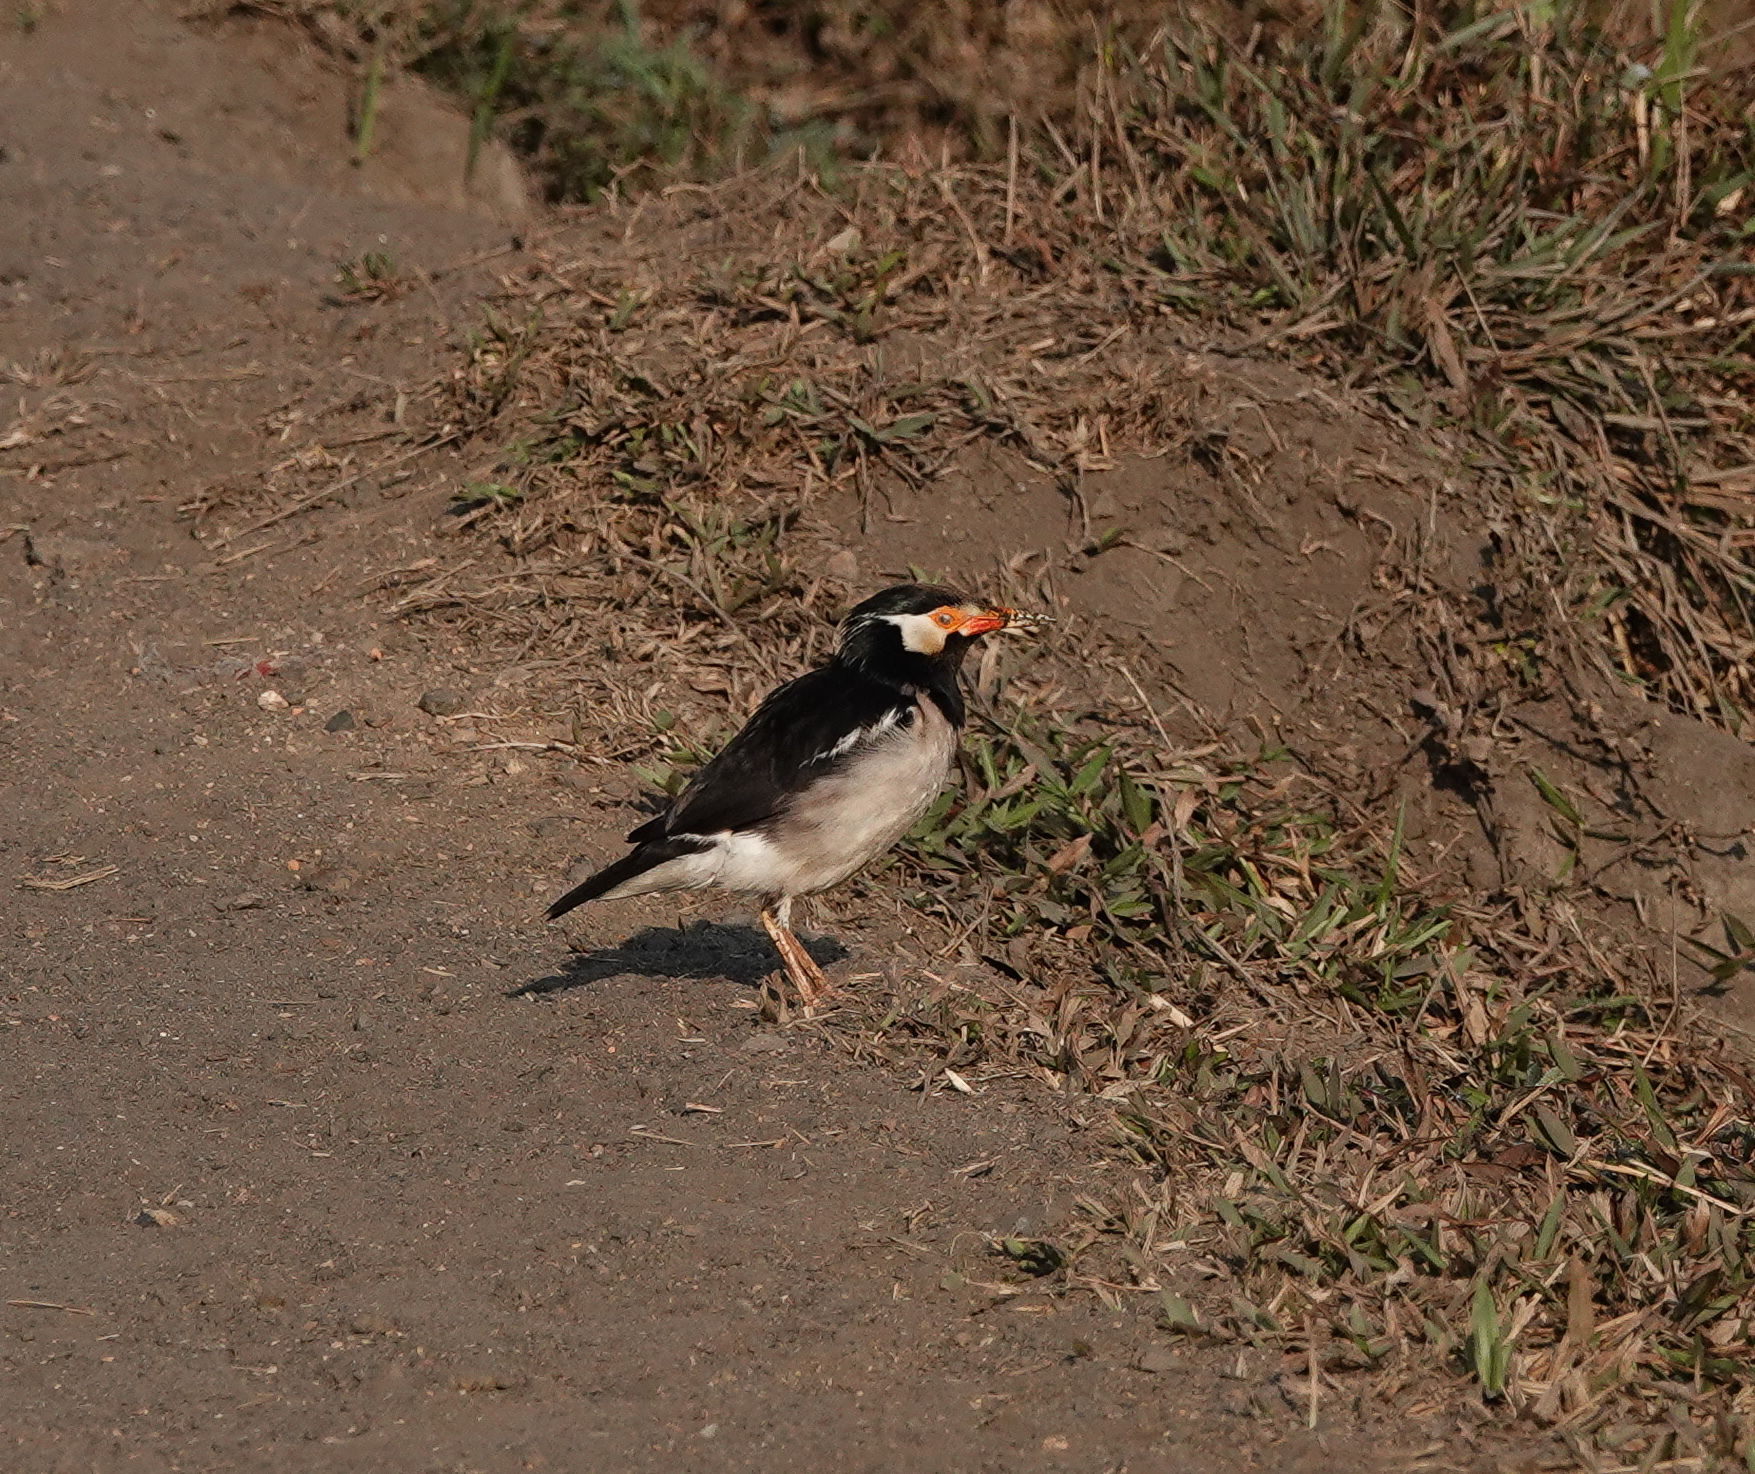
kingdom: Animalia
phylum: Chordata
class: Aves
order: Passeriformes
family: Sturnidae
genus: Gracupica
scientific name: Gracupica contra
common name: Pied myna
